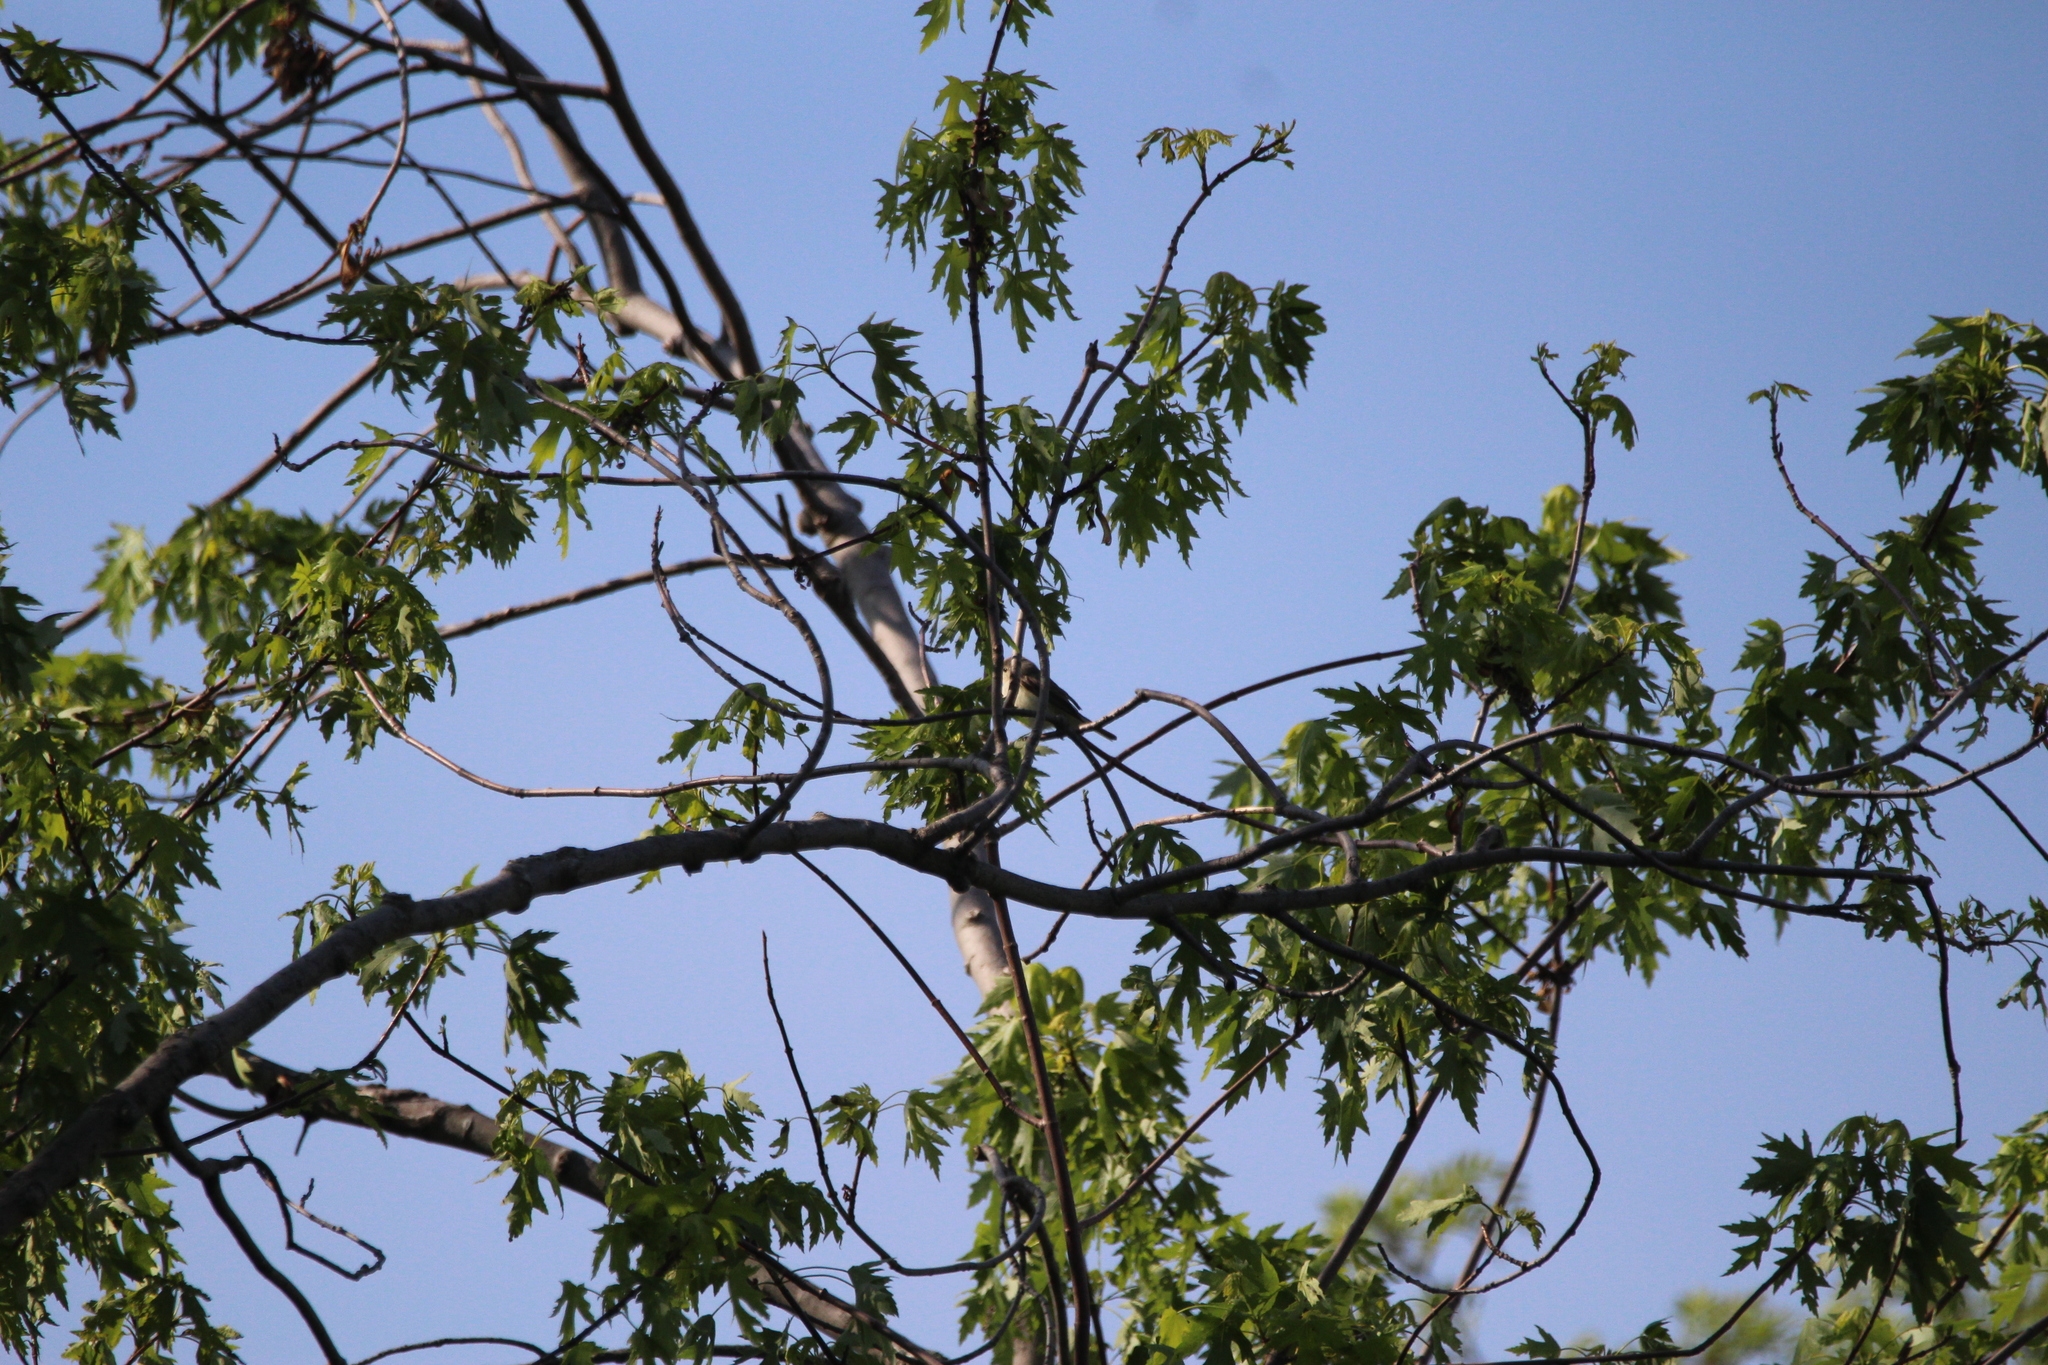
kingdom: Animalia
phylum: Chordata
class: Aves
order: Passeriformes
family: Tyrannidae
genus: Sayornis
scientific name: Sayornis phoebe
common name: Eastern phoebe
